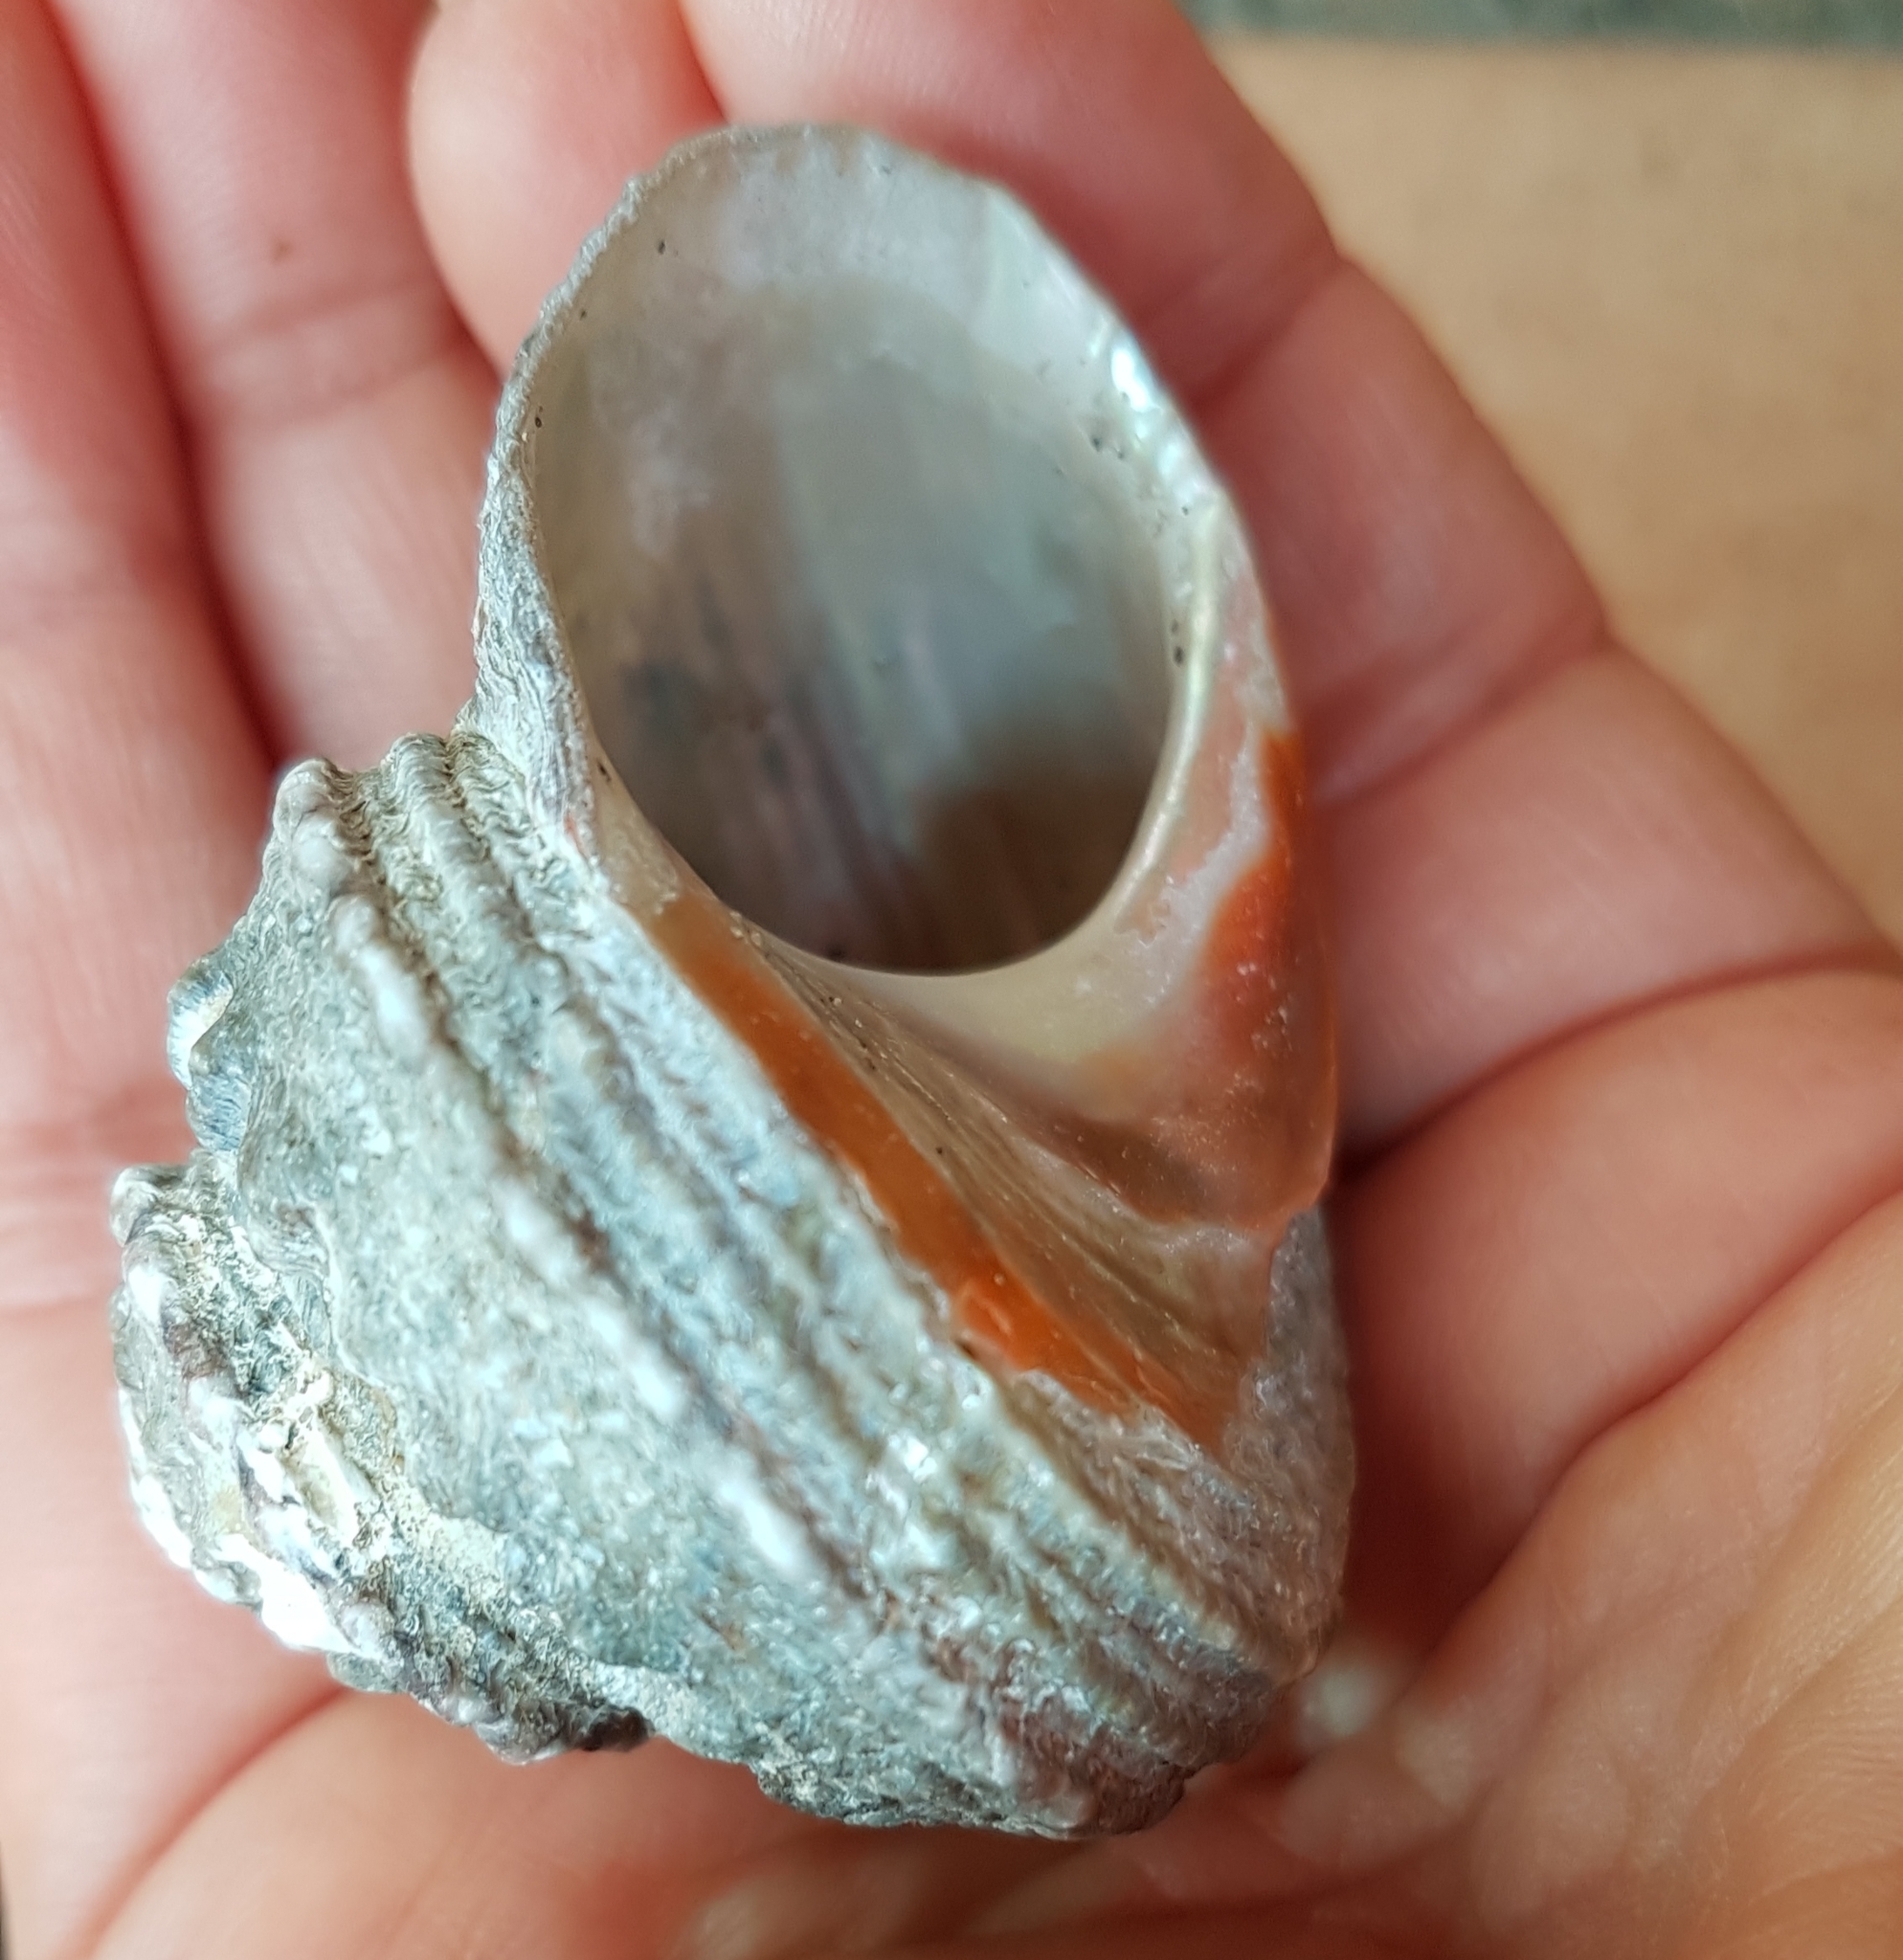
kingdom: Animalia
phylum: Mollusca
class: Gastropoda
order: Trochida
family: Turbinidae
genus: Bolma
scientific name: Bolma rugosa
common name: Rough star shell
